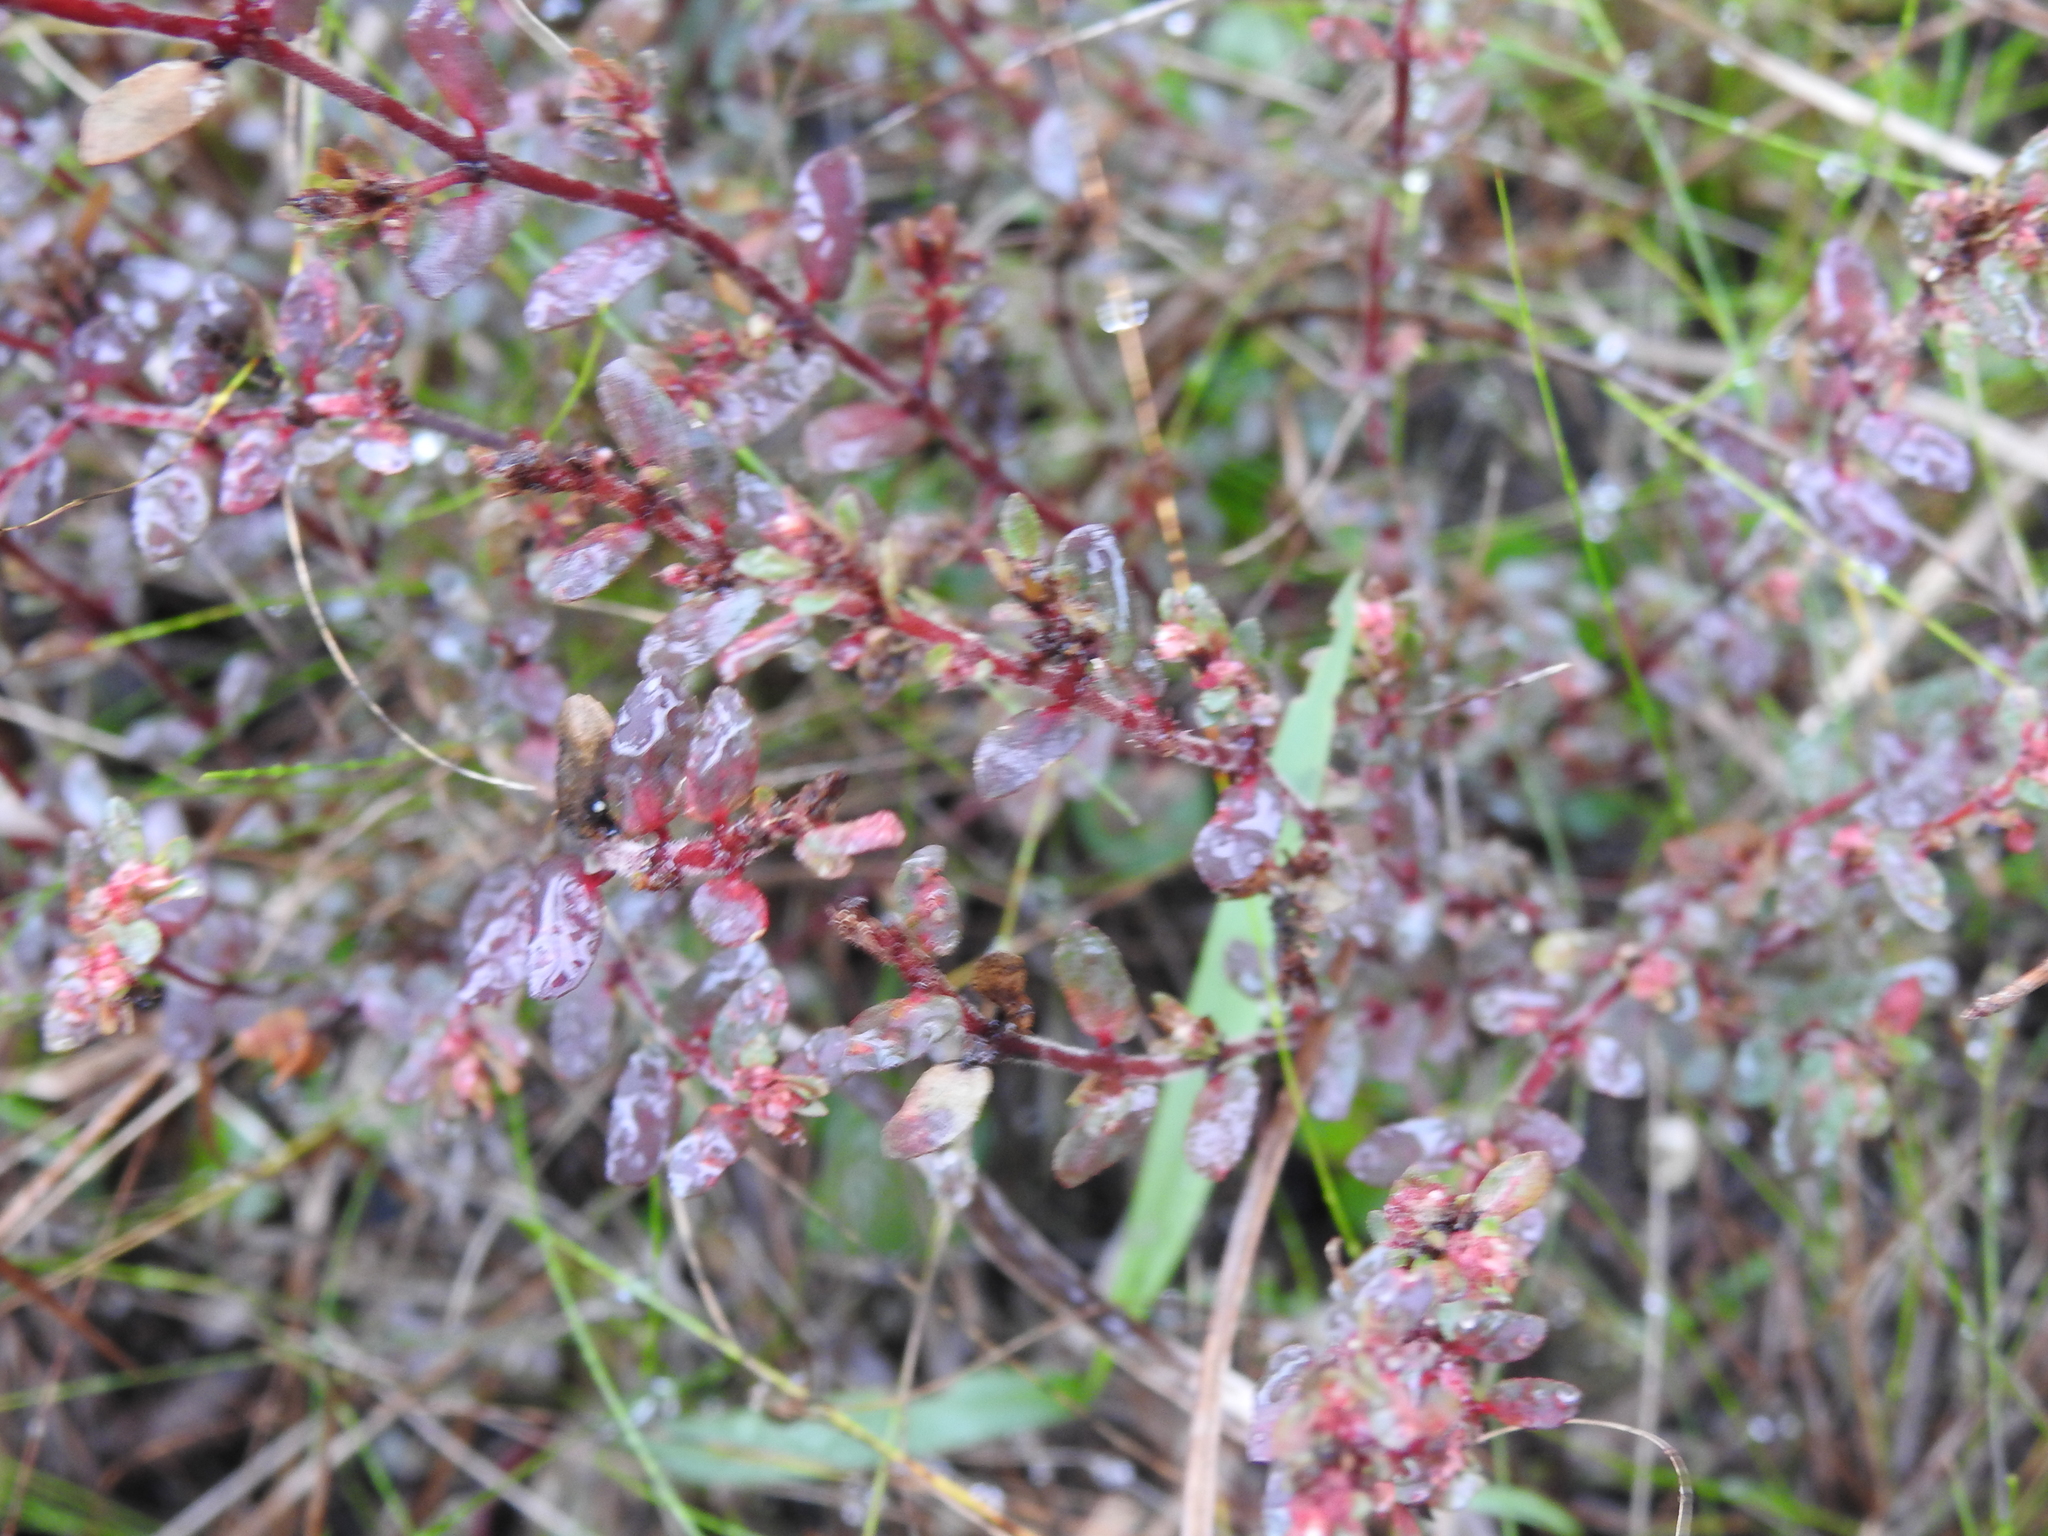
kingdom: Plantae
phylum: Tracheophyta
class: Magnoliopsida
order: Malpighiales
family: Euphorbiaceae
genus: Euphorbia
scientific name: Euphorbia conferta
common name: Everglade key sandmat
